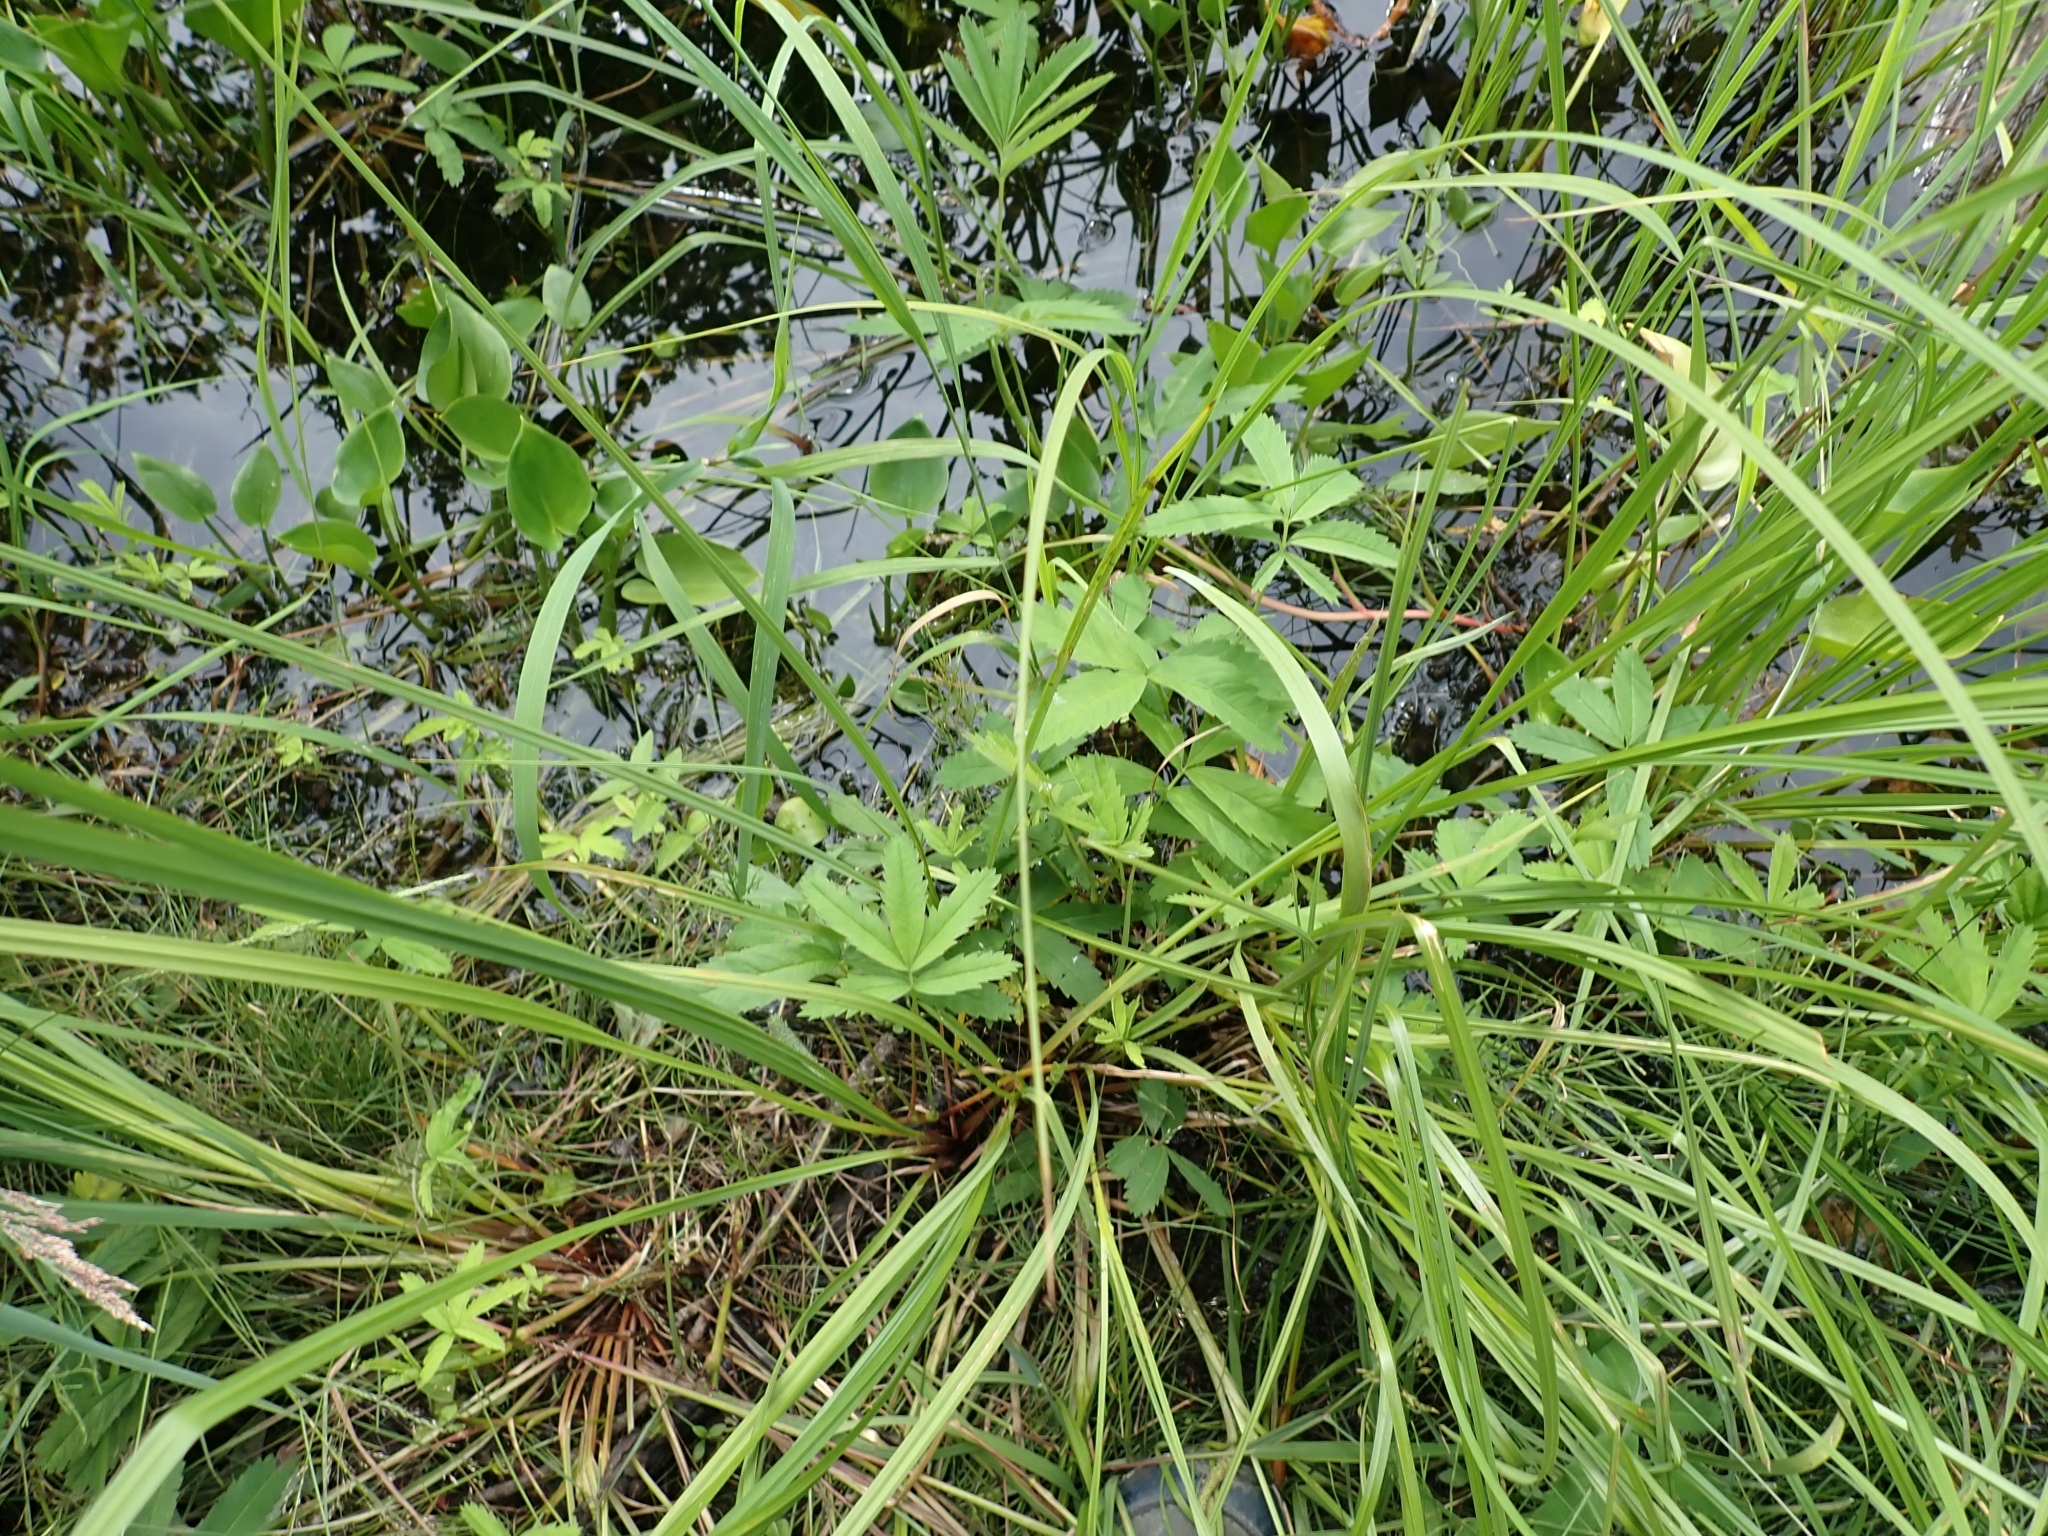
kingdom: Plantae
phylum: Tracheophyta
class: Magnoliopsida
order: Rosales
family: Rosaceae
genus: Comarum
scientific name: Comarum palustre
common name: Marsh cinquefoil
